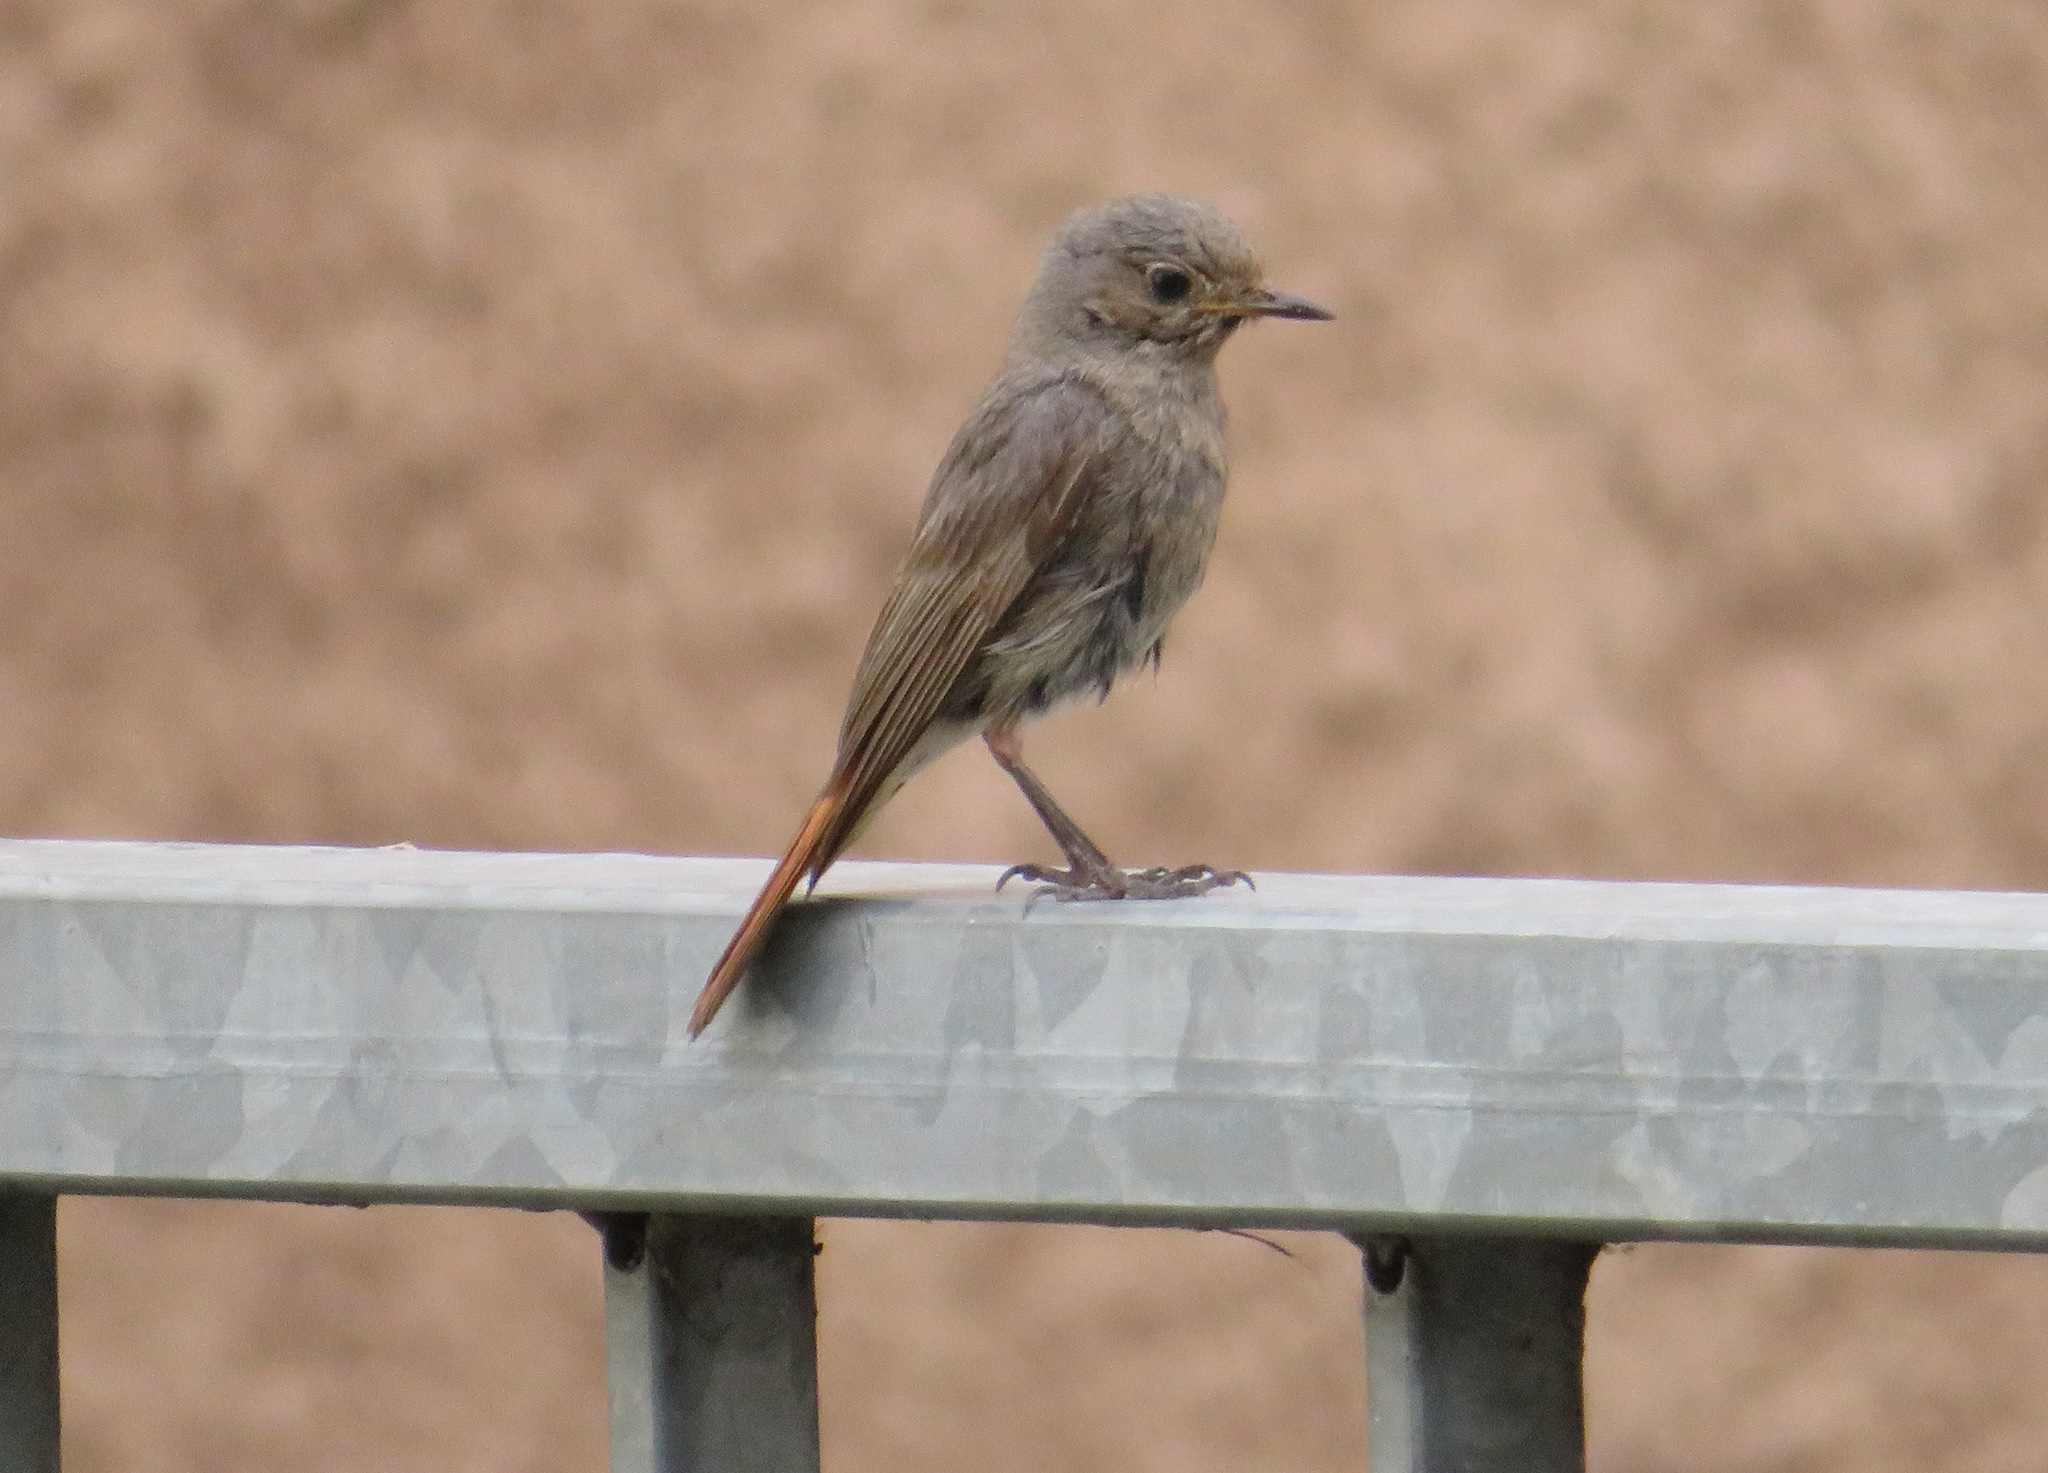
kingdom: Animalia
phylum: Chordata
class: Aves
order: Passeriformes
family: Muscicapidae
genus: Phoenicurus
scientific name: Phoenicurus ochruros
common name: Black redstart
